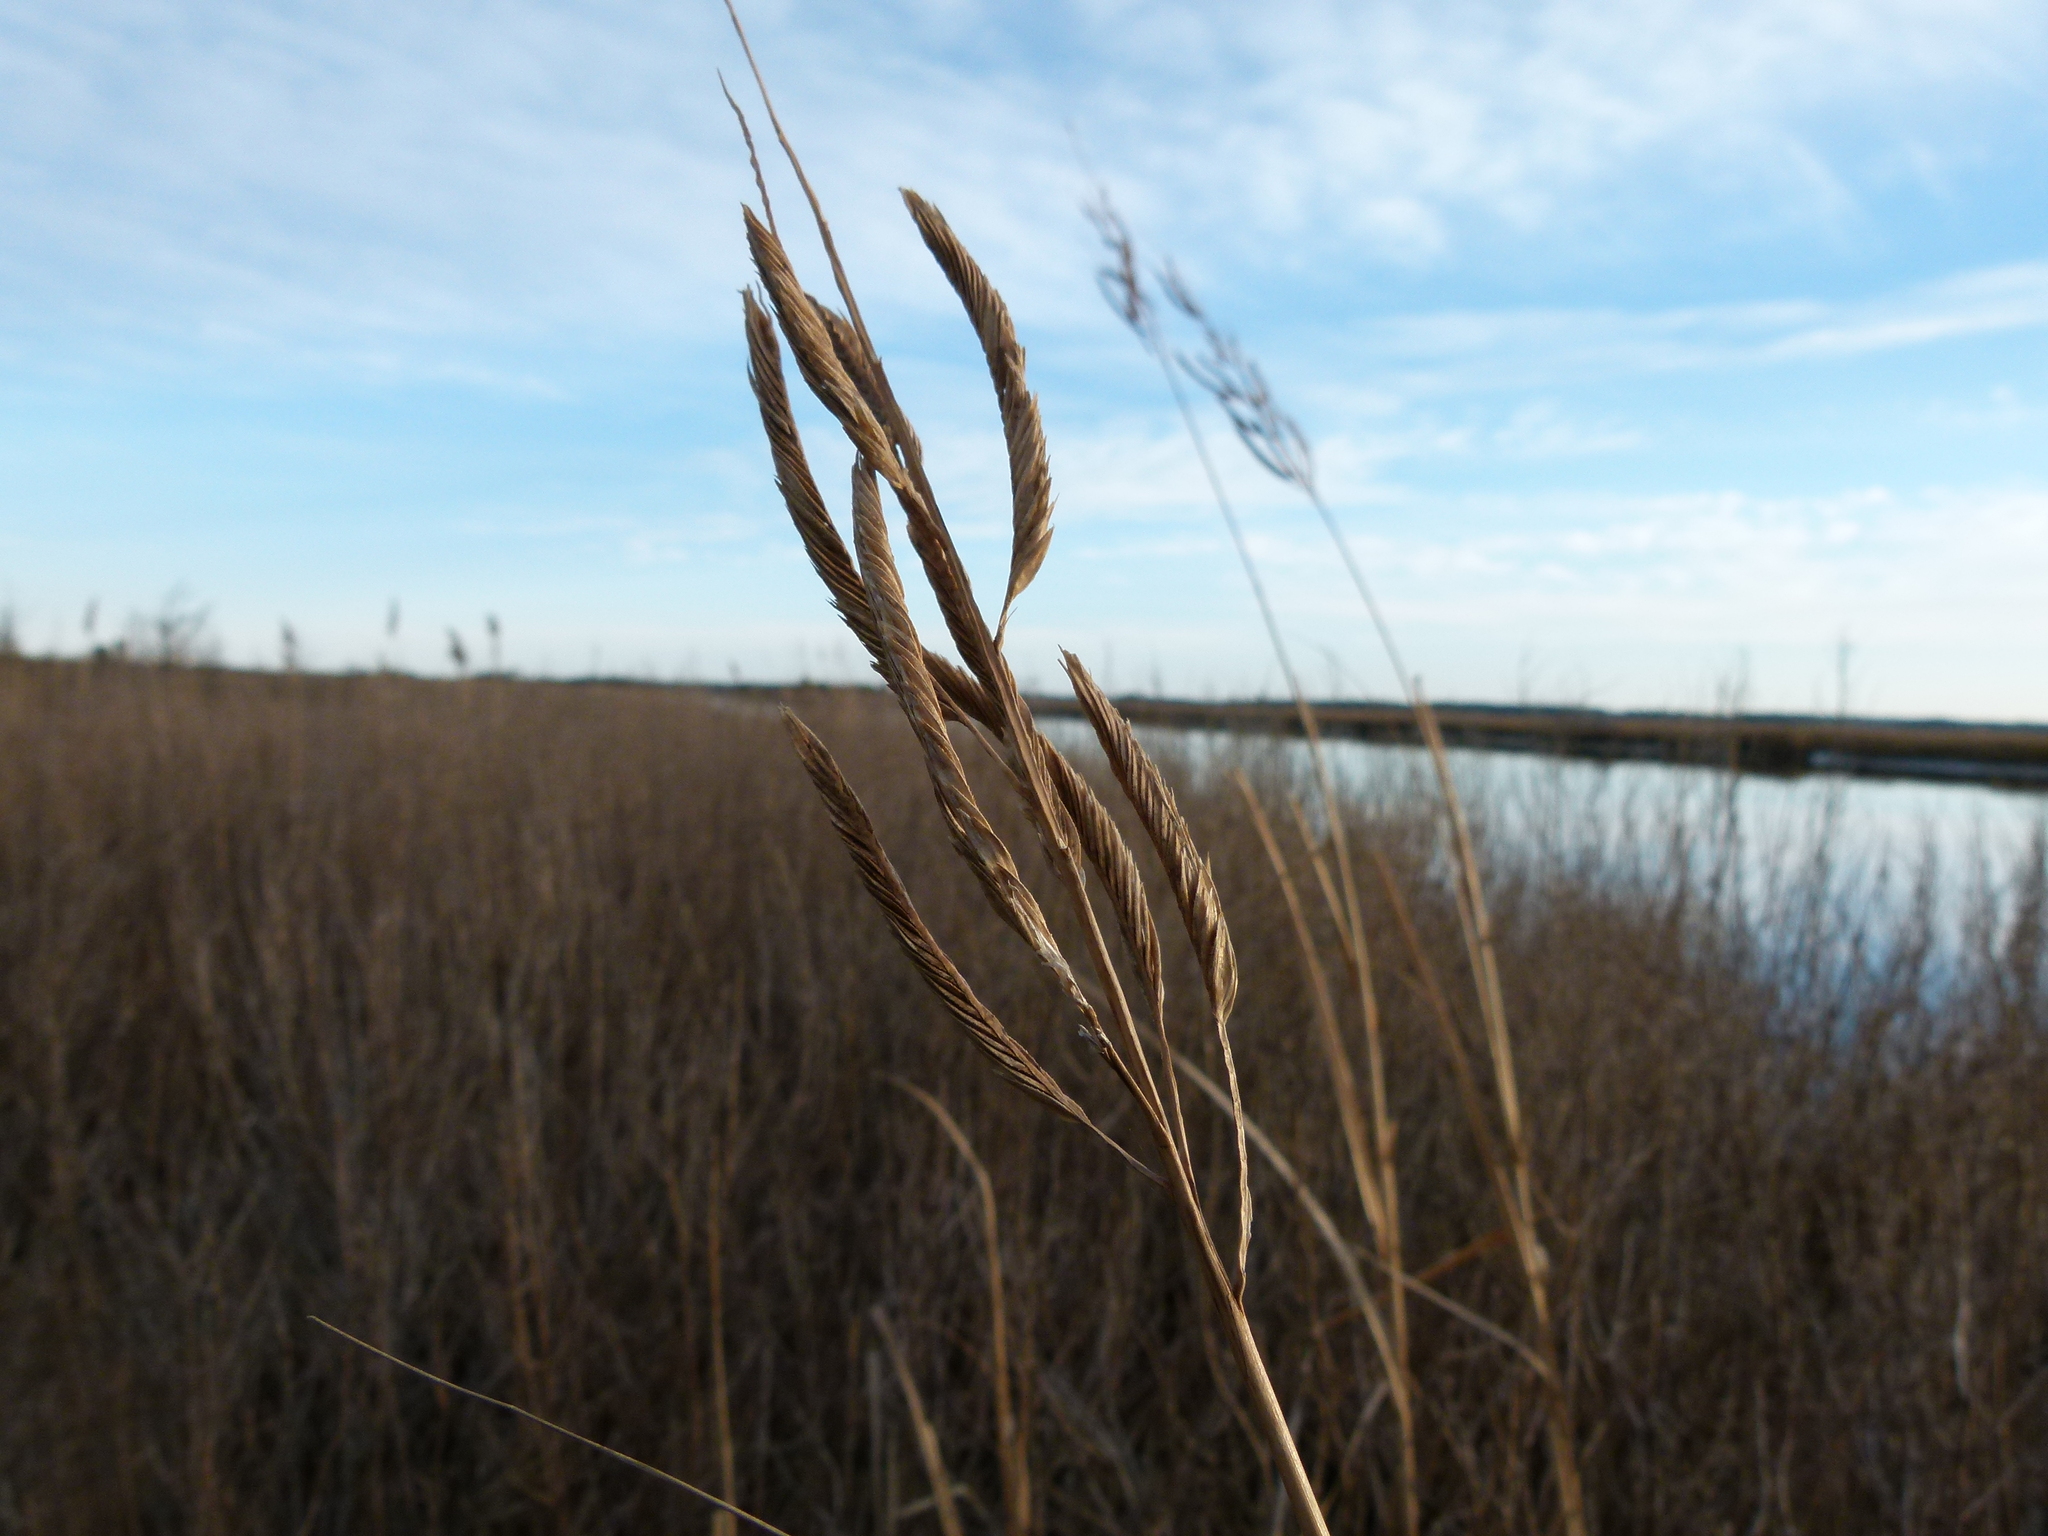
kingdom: Plantae
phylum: Tracheophyta
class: Liliopsida
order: Poales
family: Poaceae
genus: Sporobolus
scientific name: Sporobolus cynosuroides
